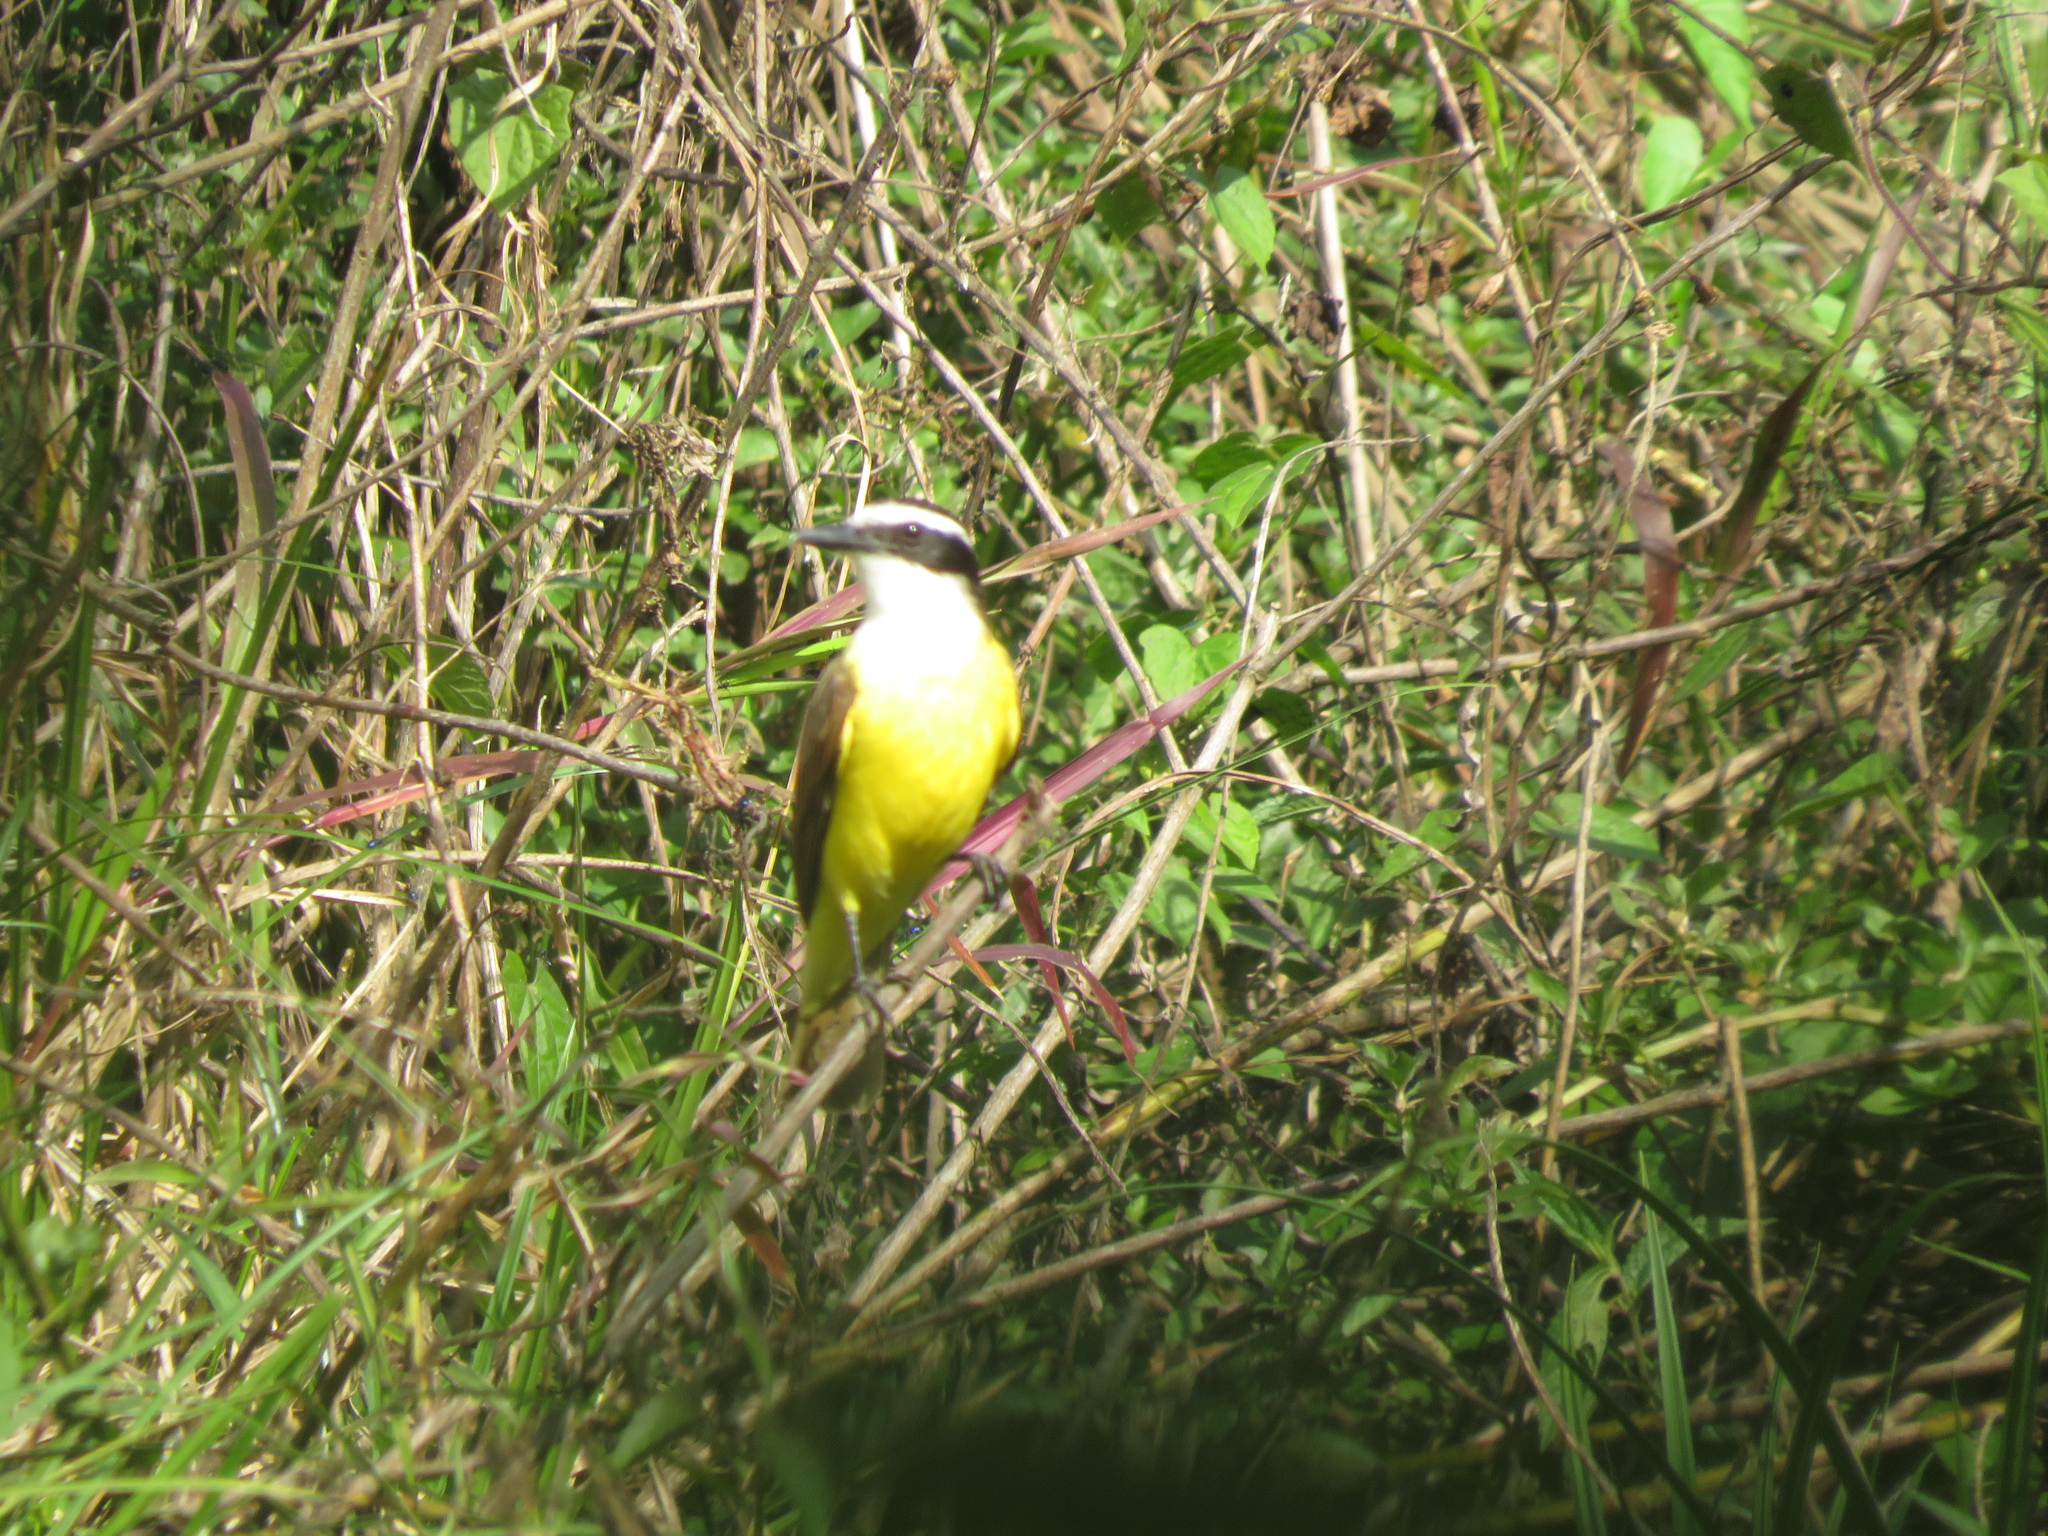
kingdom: Animalia
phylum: Chordata
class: Aves
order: Passeriformes
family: Tyrannidae
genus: Pitangus
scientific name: Pitangus sulphuratus
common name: Great kiskadee
